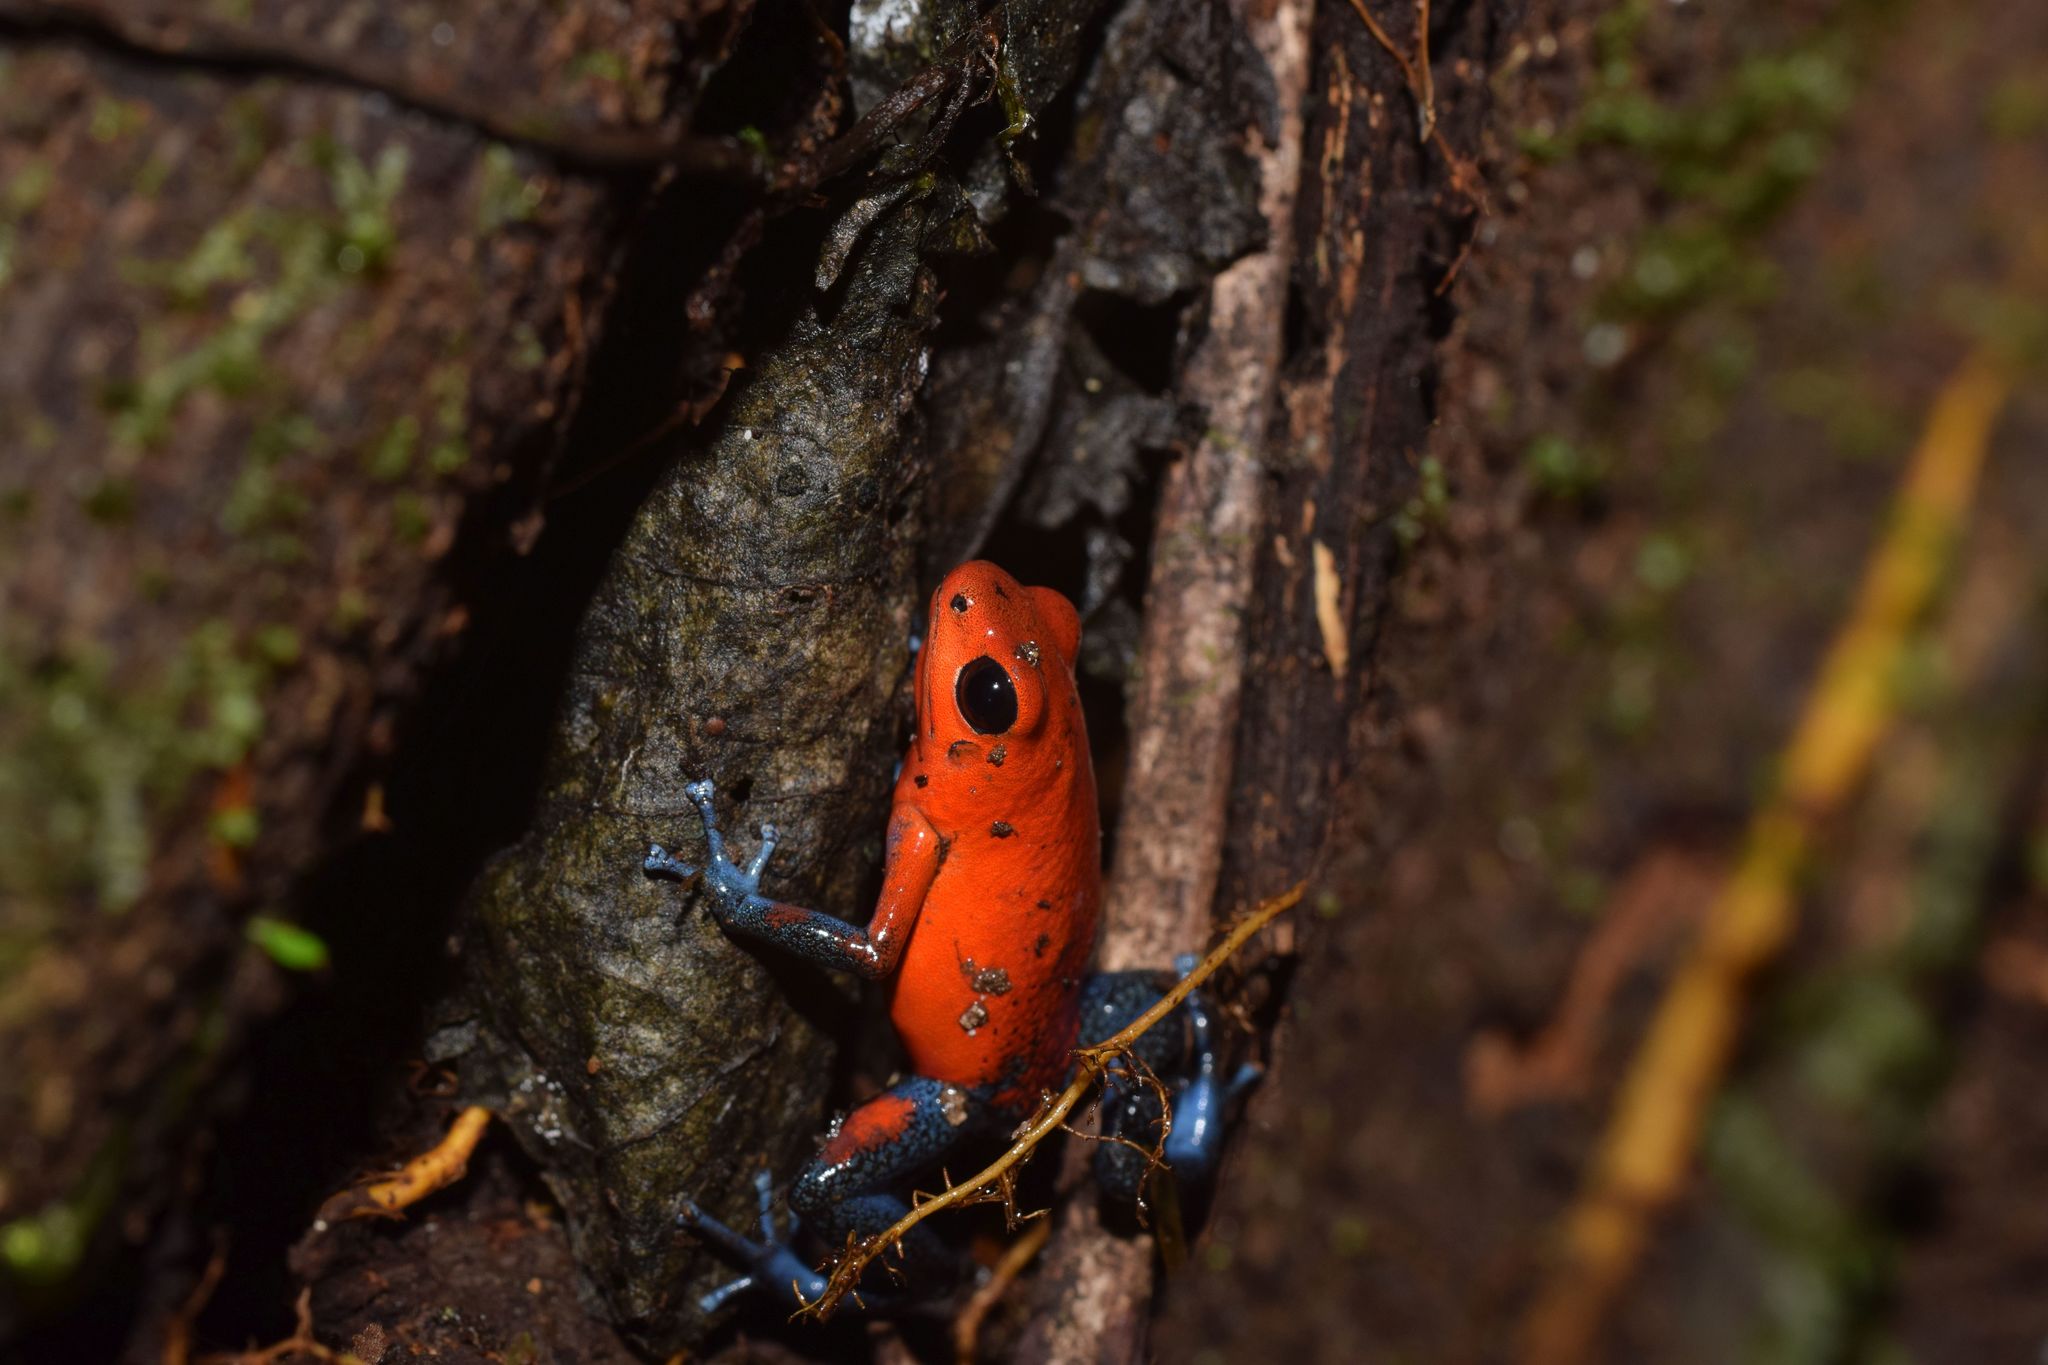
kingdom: Animalia
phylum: Chordata
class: Amphibia
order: Anura
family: Dendrobatidae
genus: Oophaga
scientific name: Oophaga pumilio
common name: Flaming poison frog
